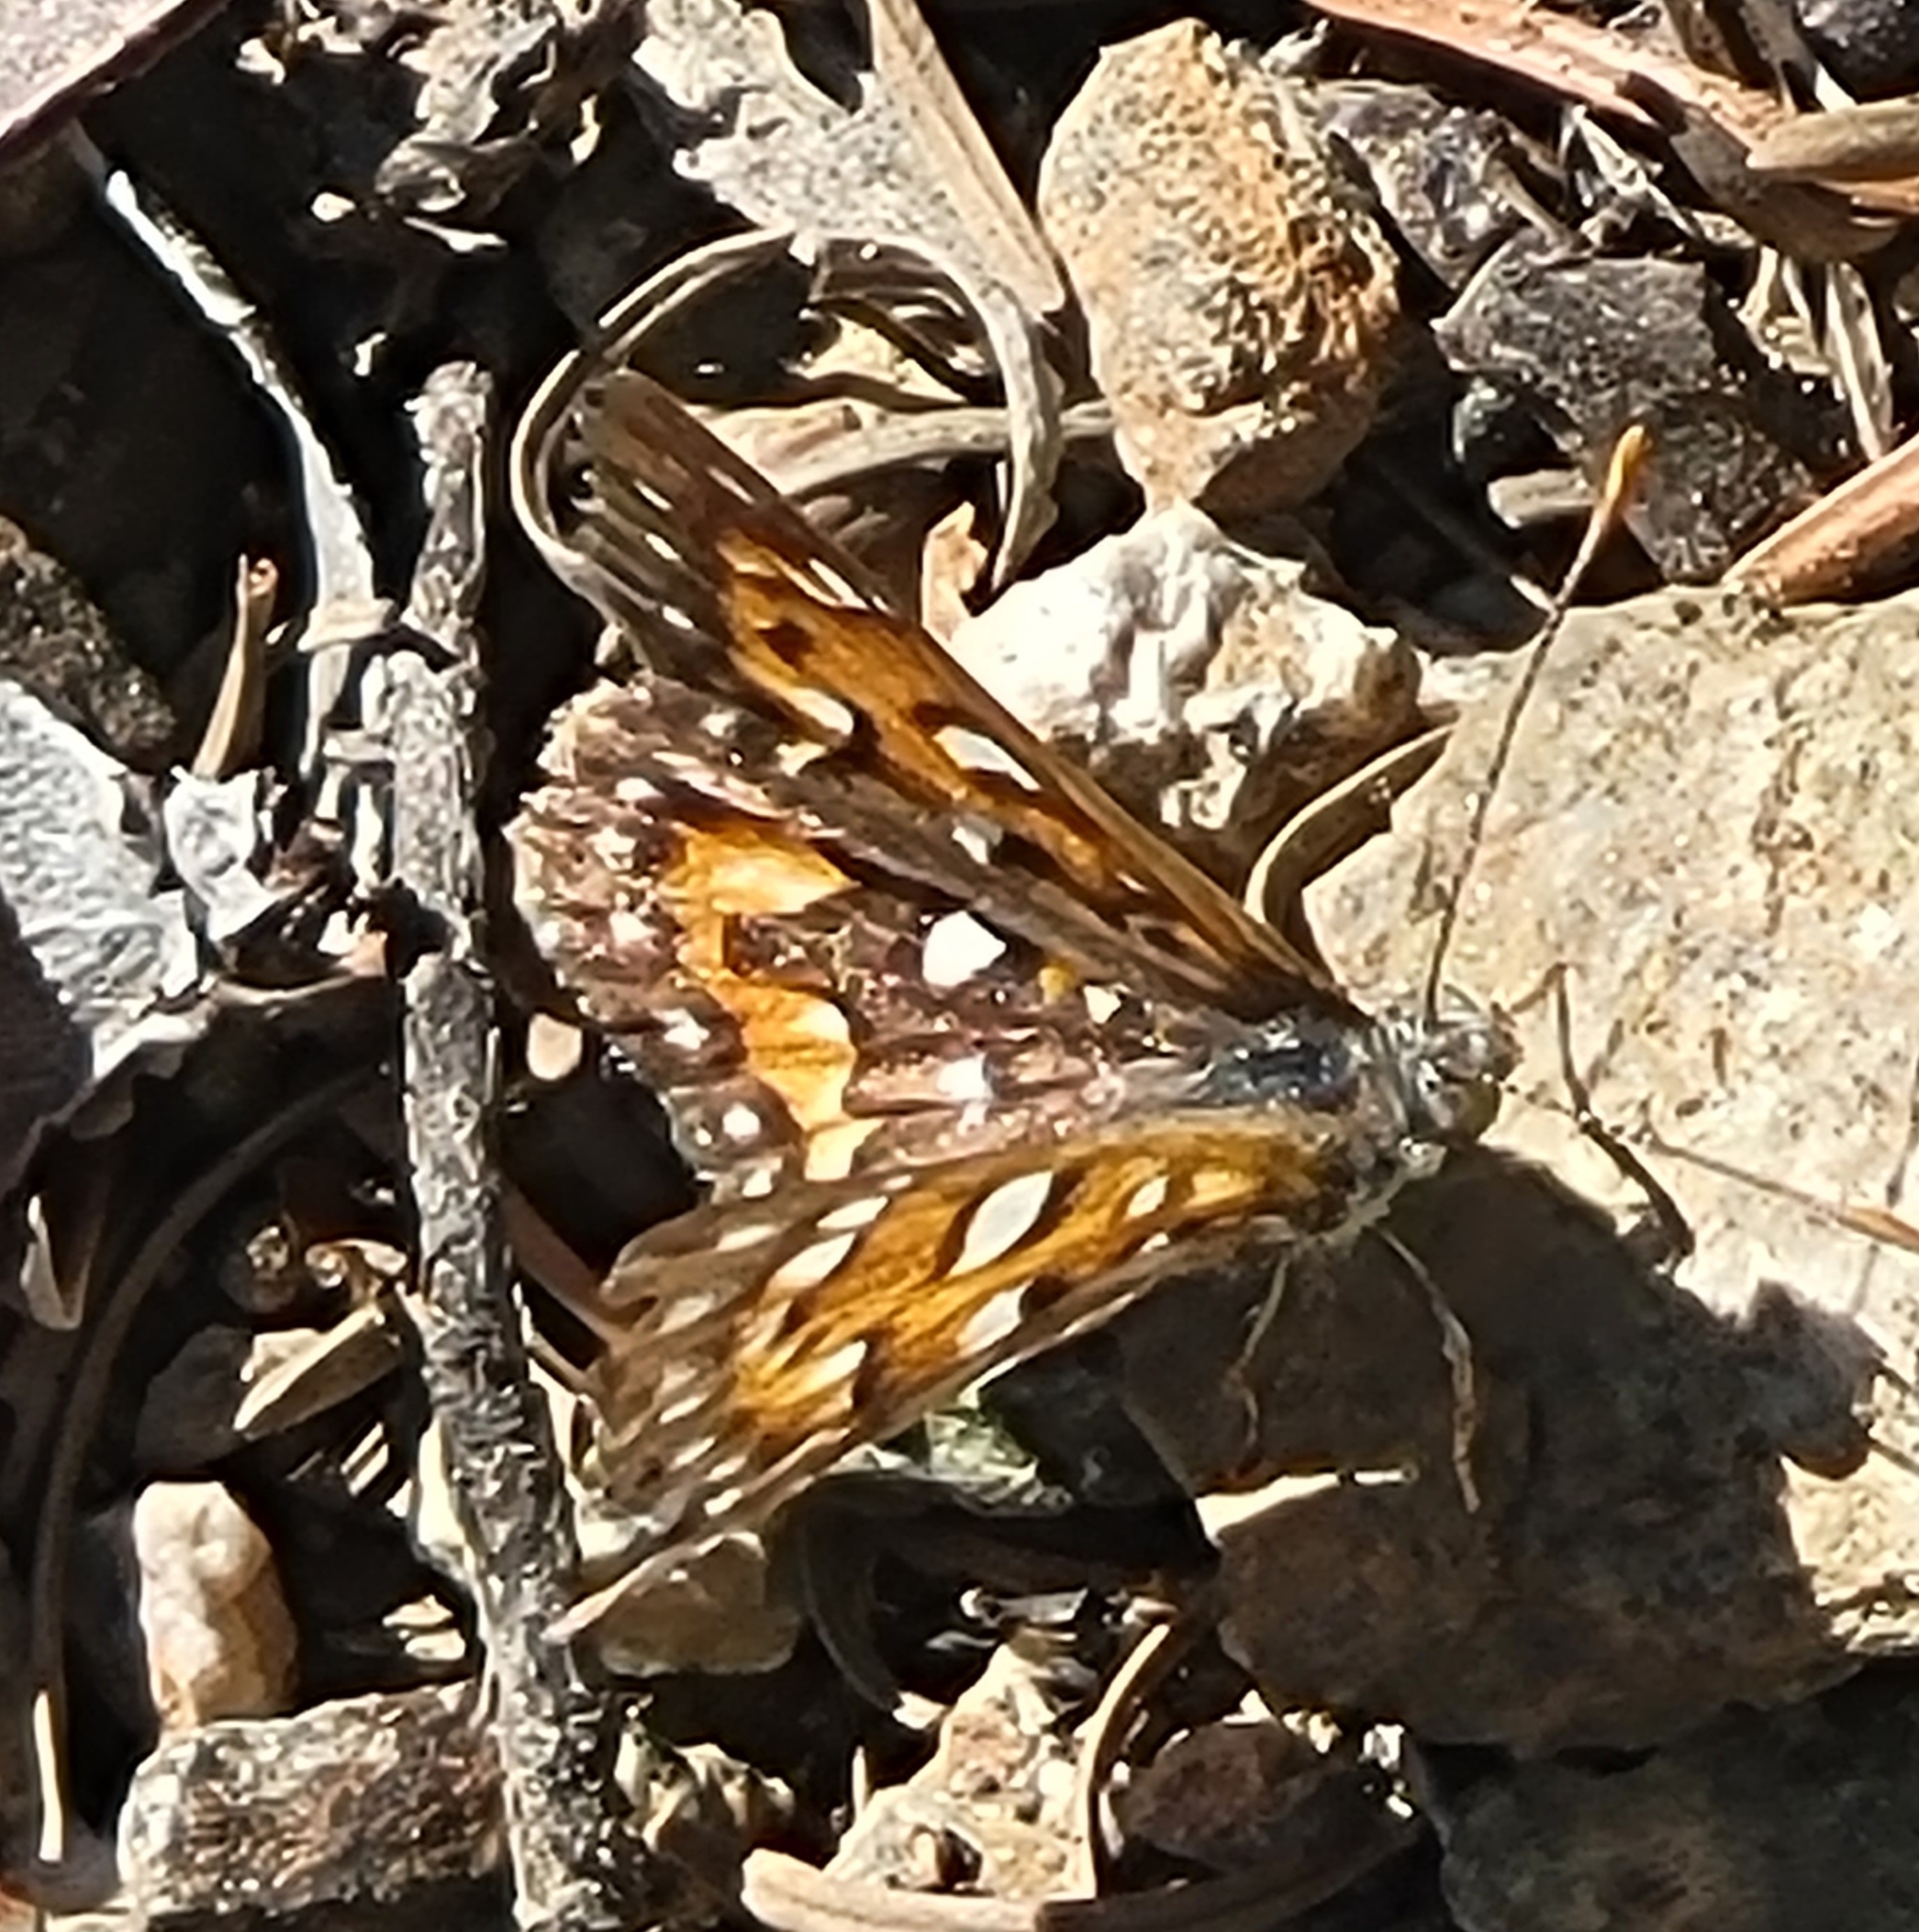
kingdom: Animalia
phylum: Arthropoda
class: Insecta
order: Lepidoptera
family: Riodinidae
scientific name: Riodinidae
